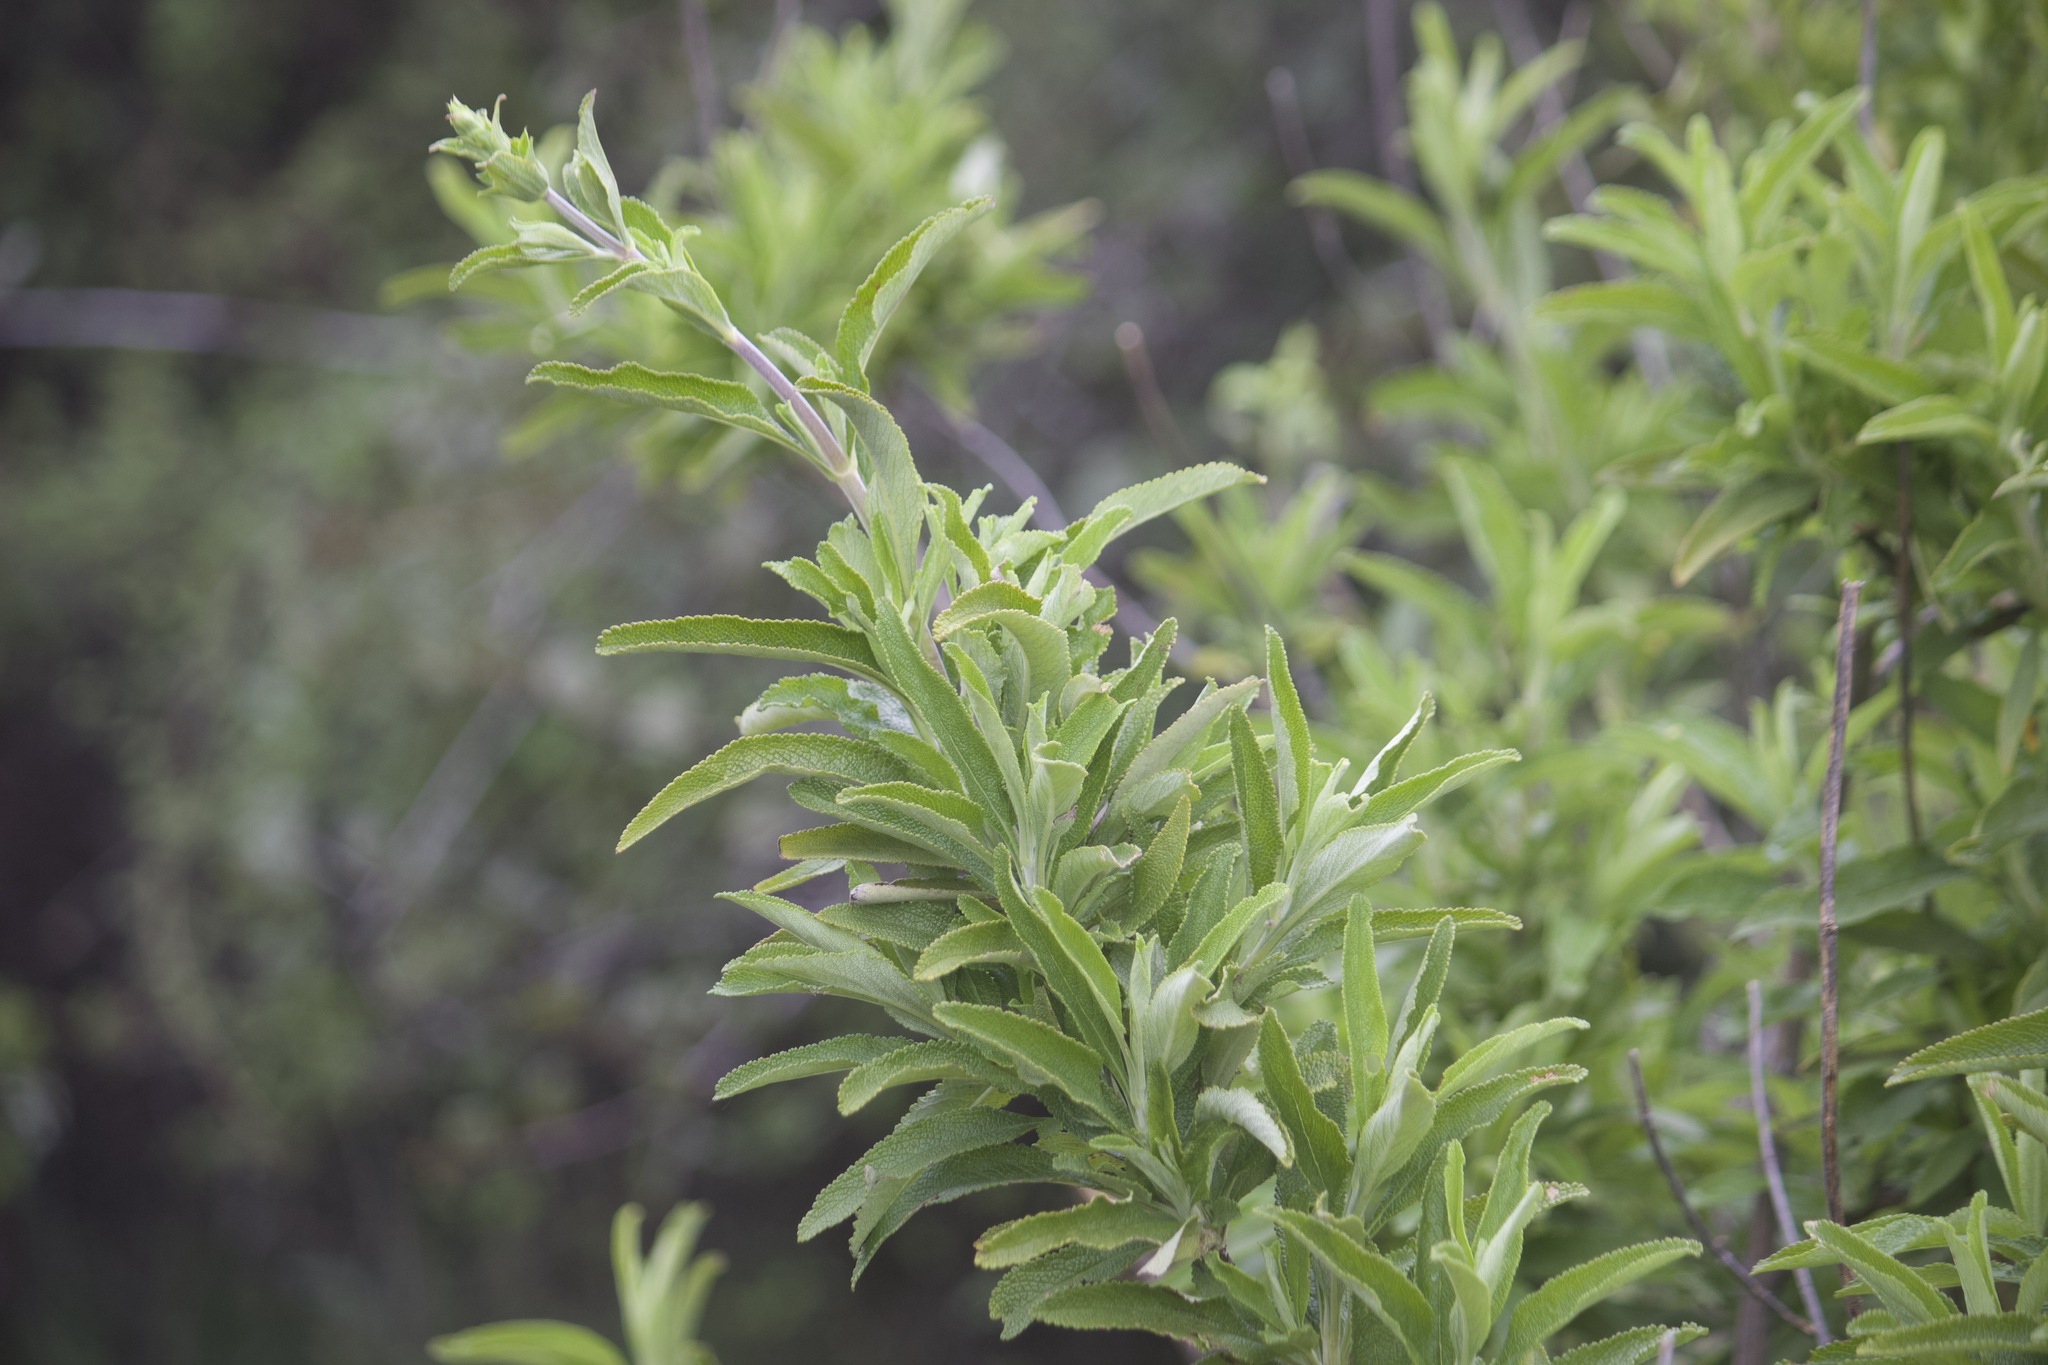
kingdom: Plantae
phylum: Tracheophyta
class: Magnoliopsida
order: Lamiales
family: Lamiaceae
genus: Salvia
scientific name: Salvia mellifera
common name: Black sage
